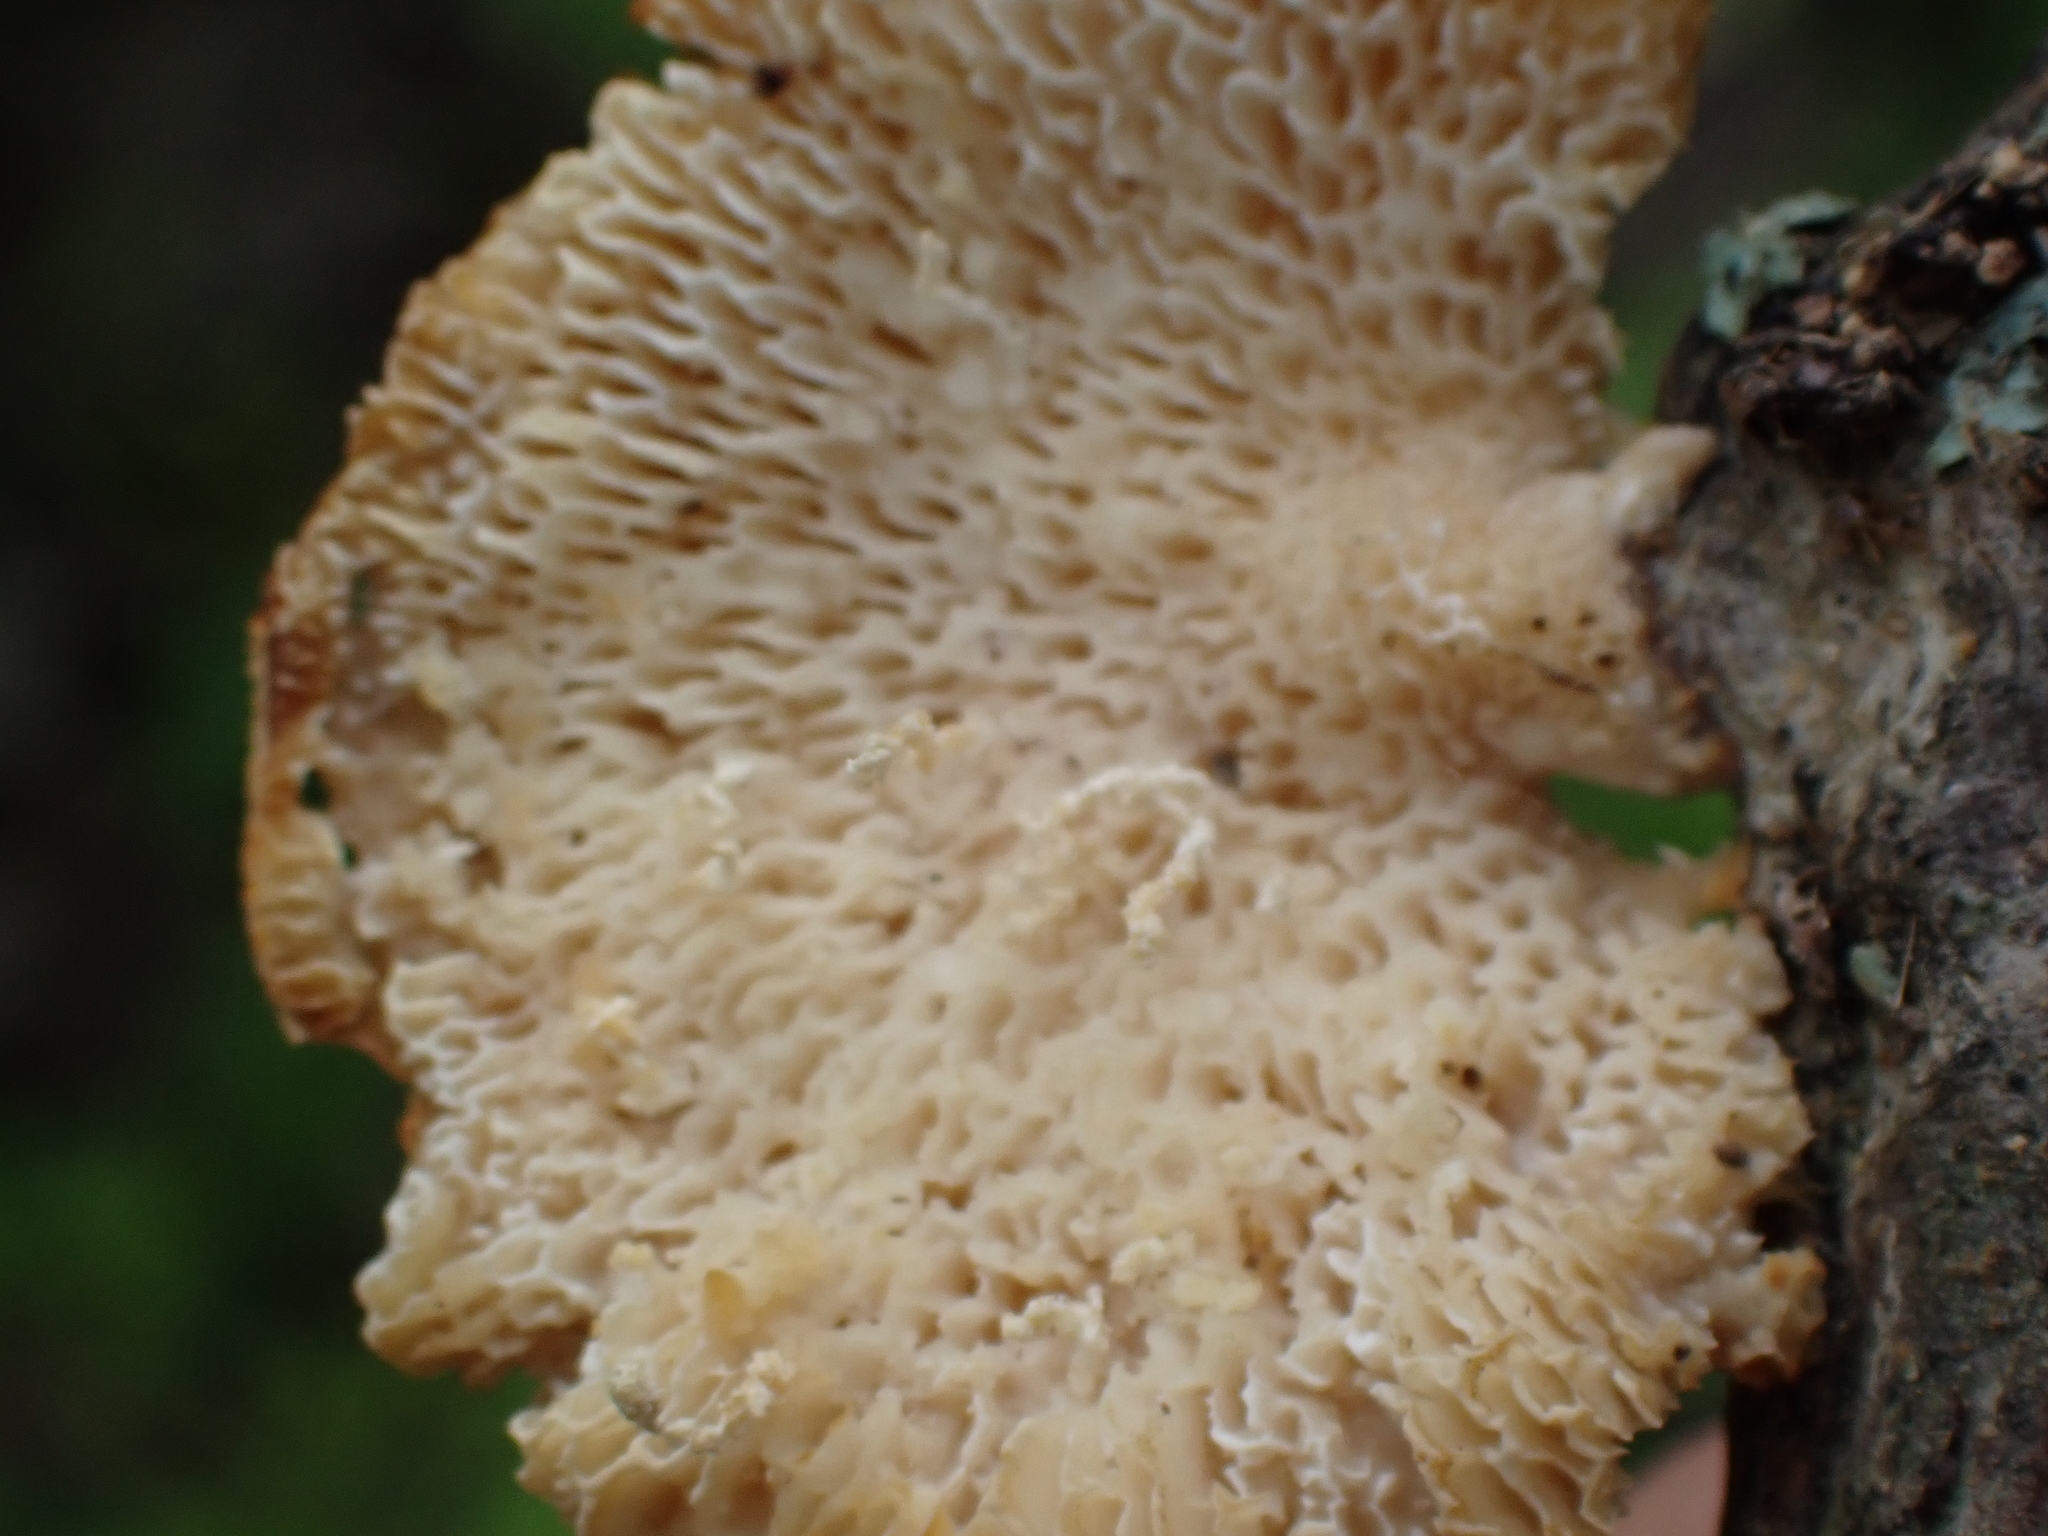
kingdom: Fungi
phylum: Basidiomycota
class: Agaricomycetes
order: Polyporales
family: Polyporaceae
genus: Neofavolus
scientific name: Neofavolus alveolaris
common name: Hexagonal-pored polypore
